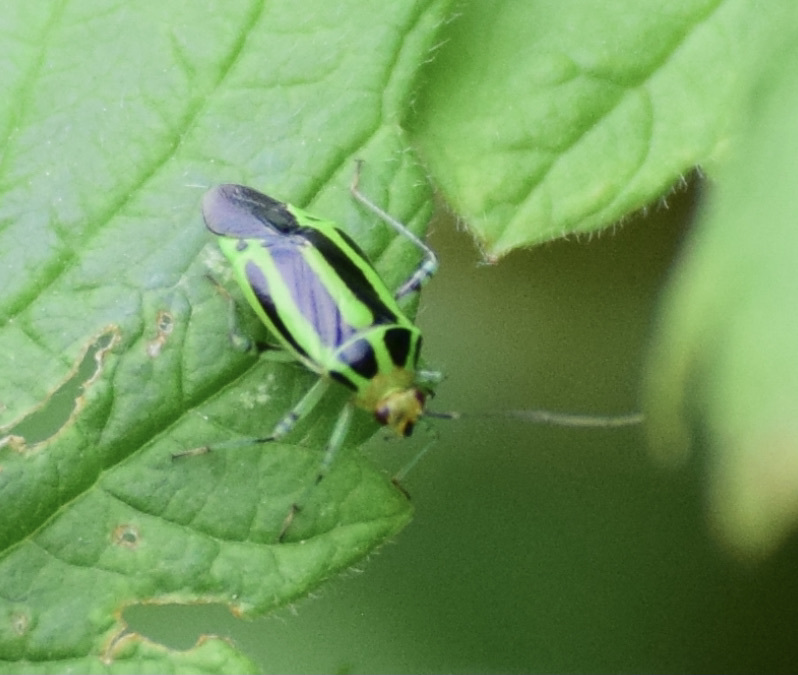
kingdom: Animalia
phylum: Arthropoda
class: Insecta
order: Hemiptera
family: Miridae
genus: Poecilocapsus
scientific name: Poecilocapsus lineatus
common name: Four-lined plant bug
